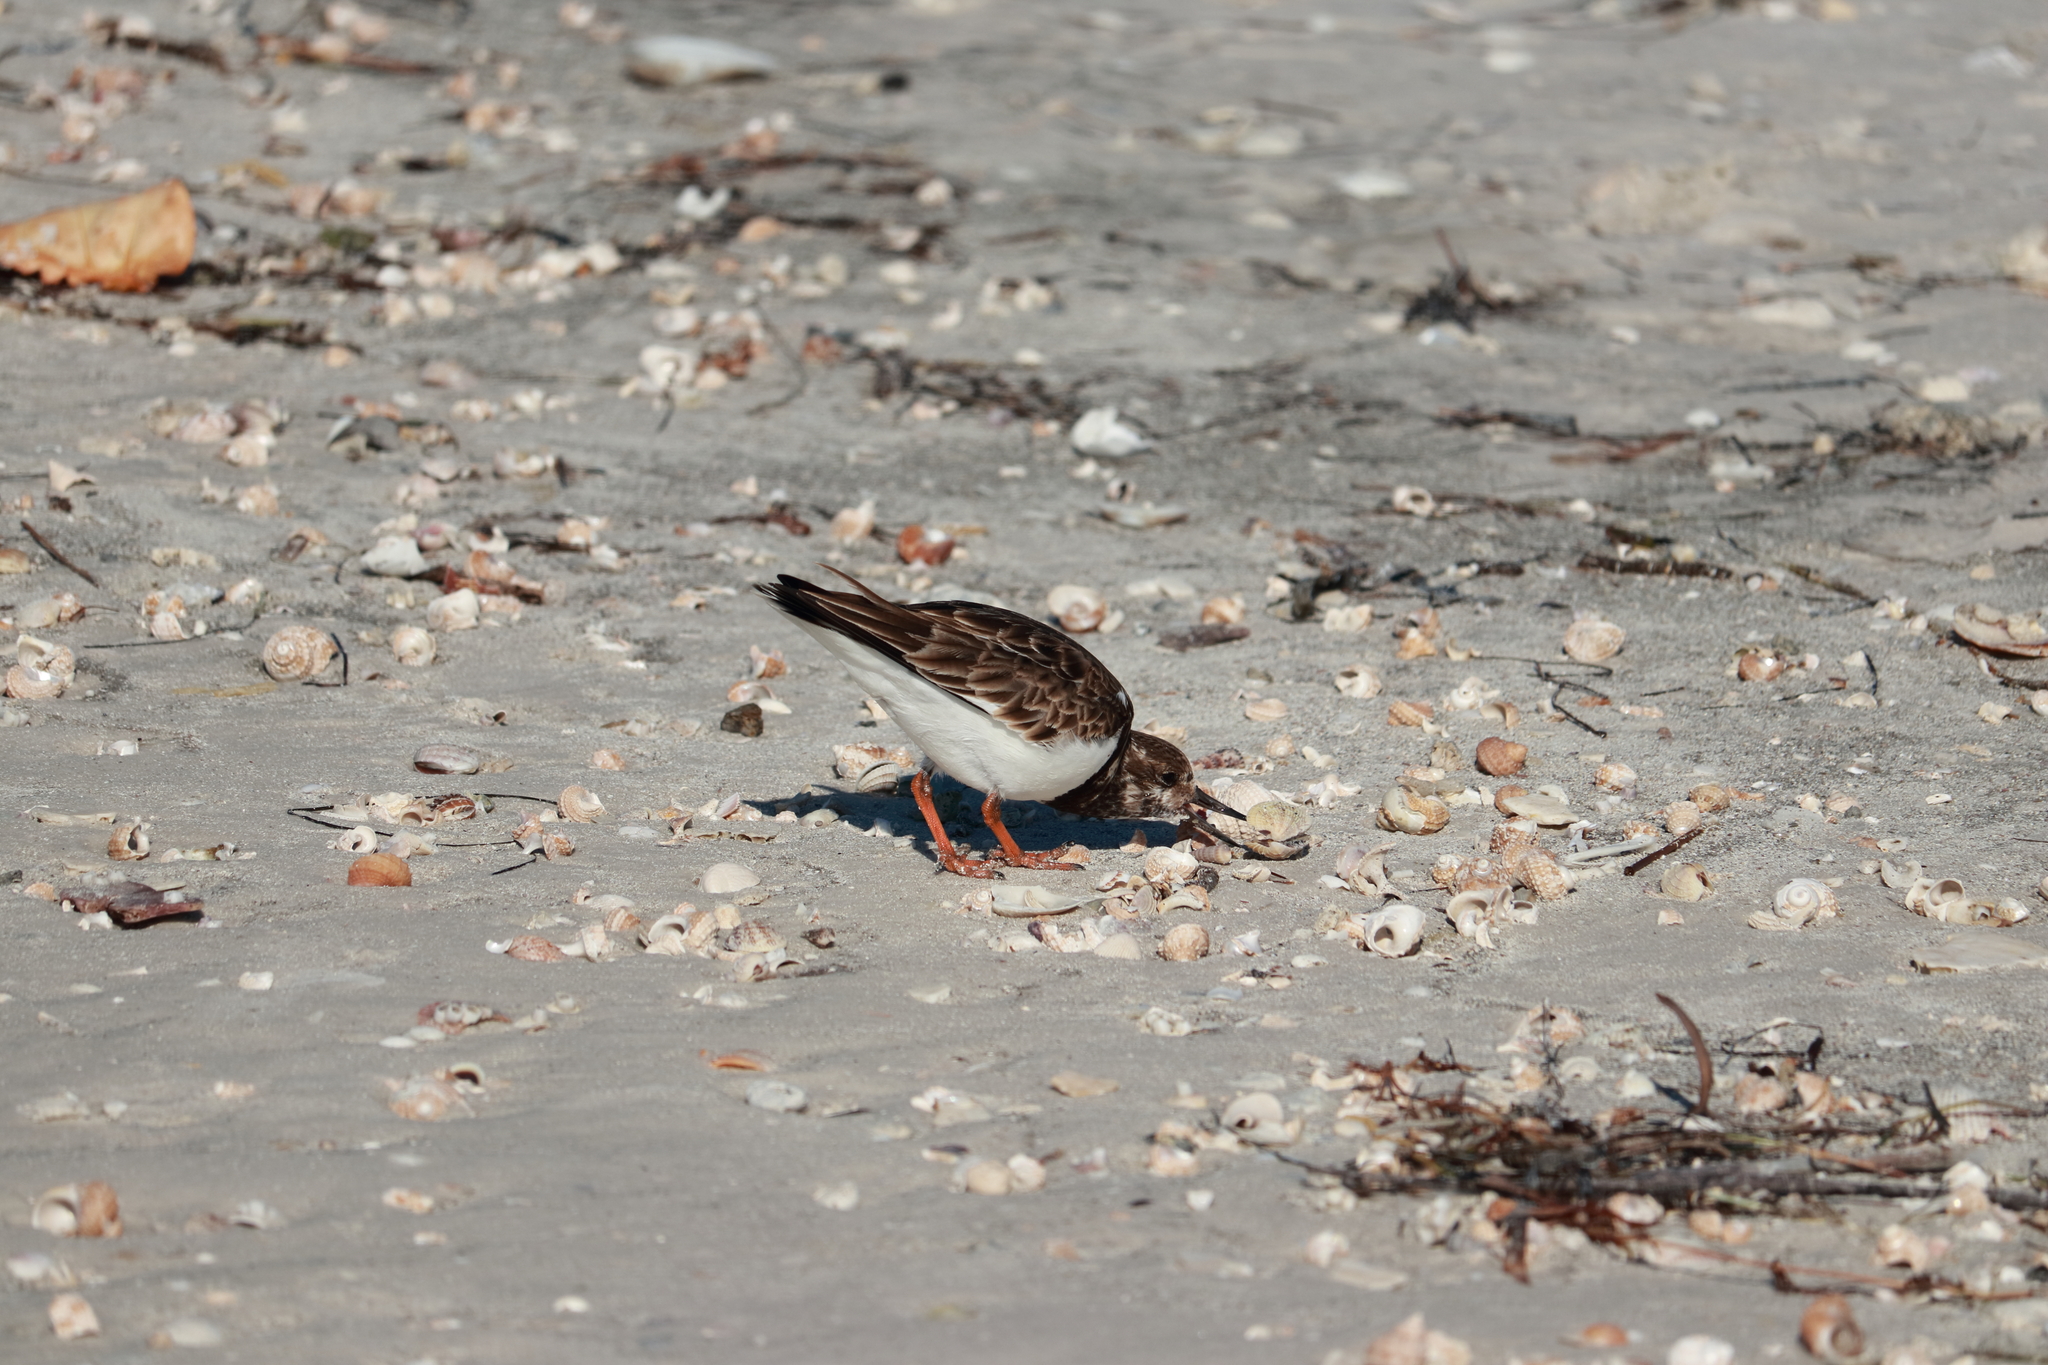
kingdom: Animalia
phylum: Chordata
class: Aves
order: Charadriiformes
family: Scolopacidae
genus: Arenaria
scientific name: Arenaria interpres
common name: Ruddy turnstone
